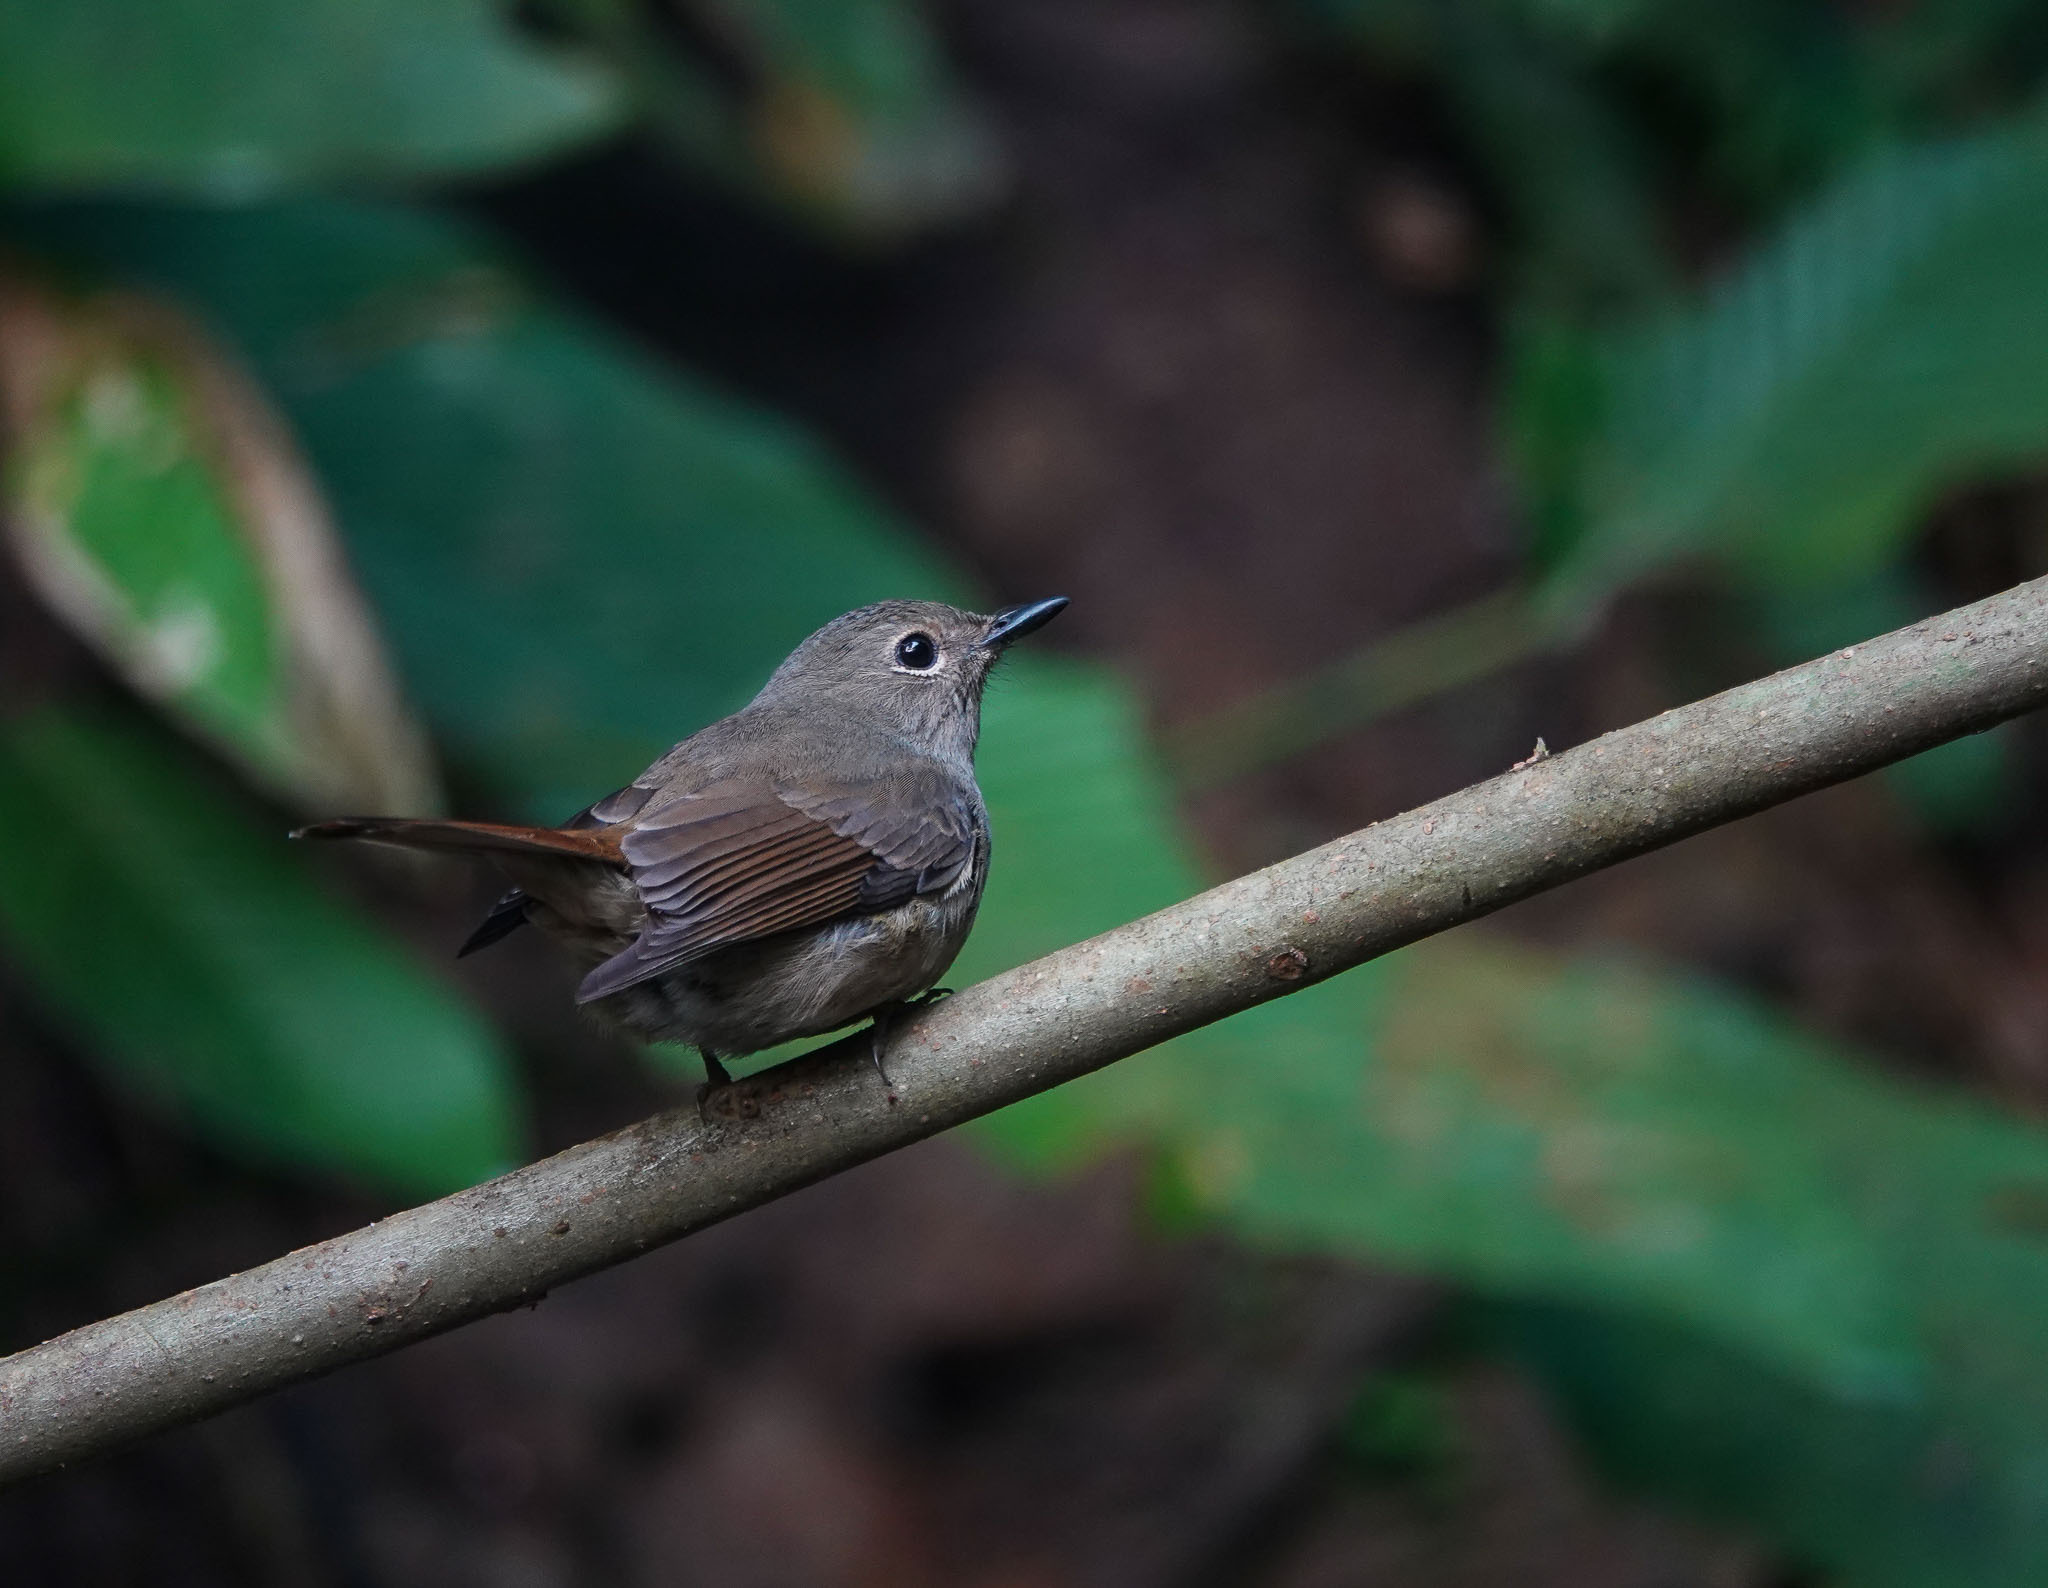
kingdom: Animalia
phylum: Chordata
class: Aves
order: Passeriformes
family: Muscicapidae
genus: Cyornis
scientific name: Cyornis unicolor
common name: Pale blue flycatcher
